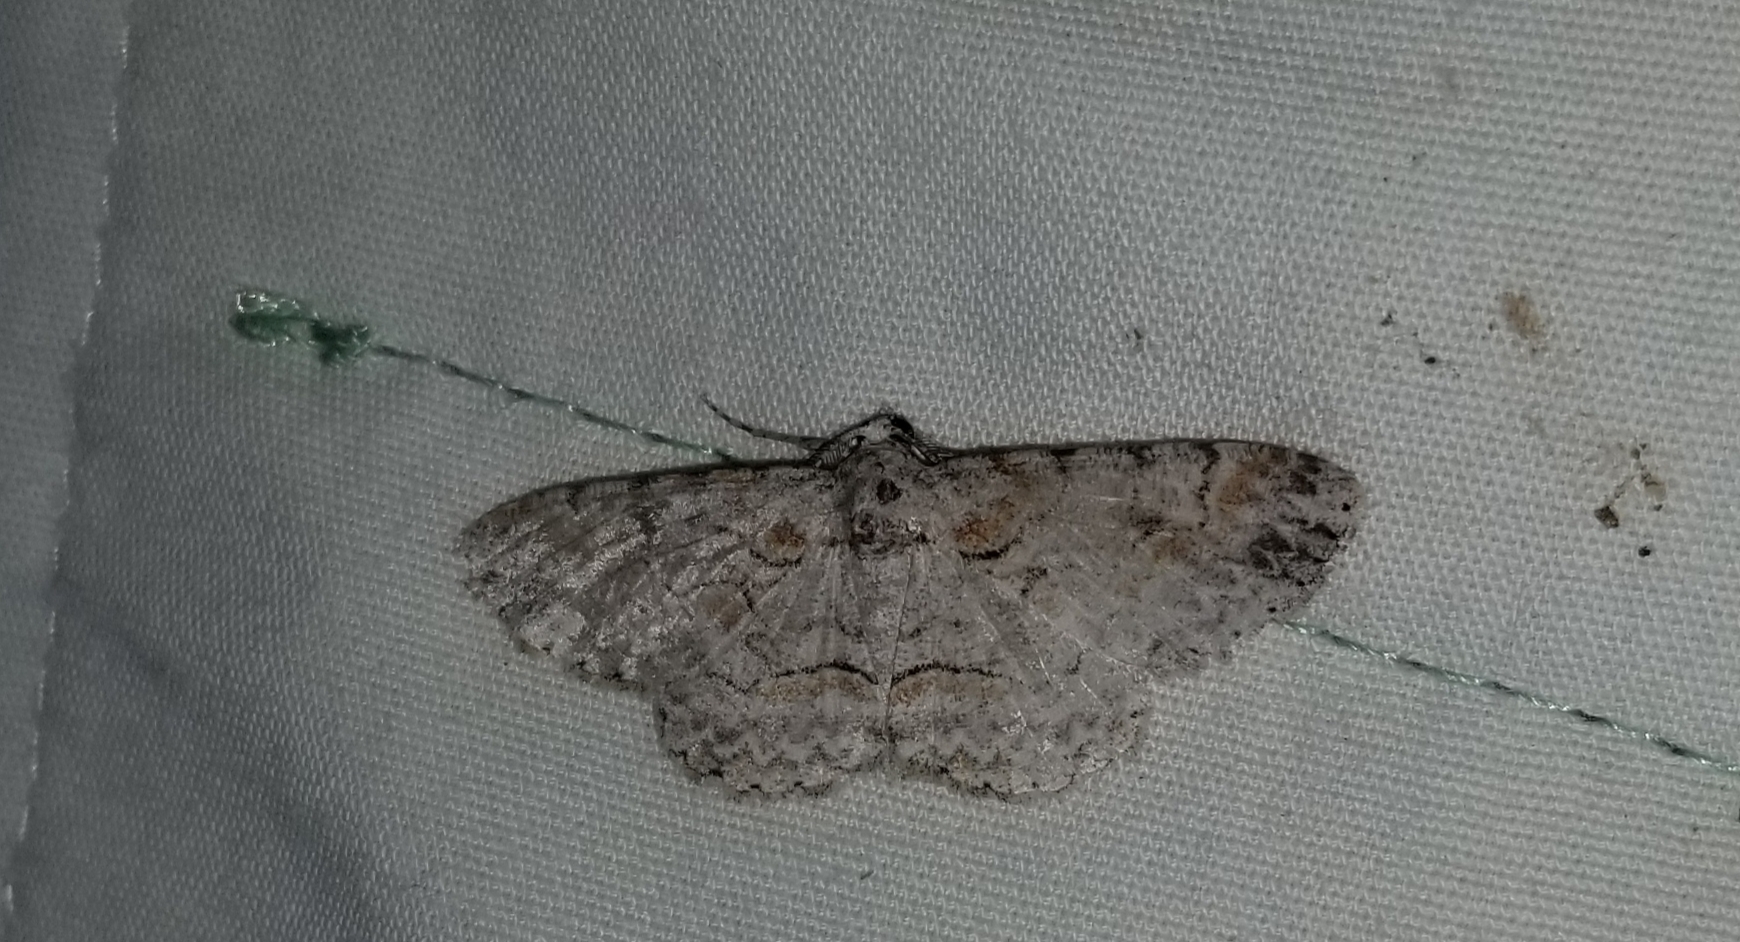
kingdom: Animalia
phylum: Arthropoda
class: Insecta
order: Lepidoptera
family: Geometridae
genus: Iridopsis
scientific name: Iridopsis defectaria
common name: Brown-shaded gray
